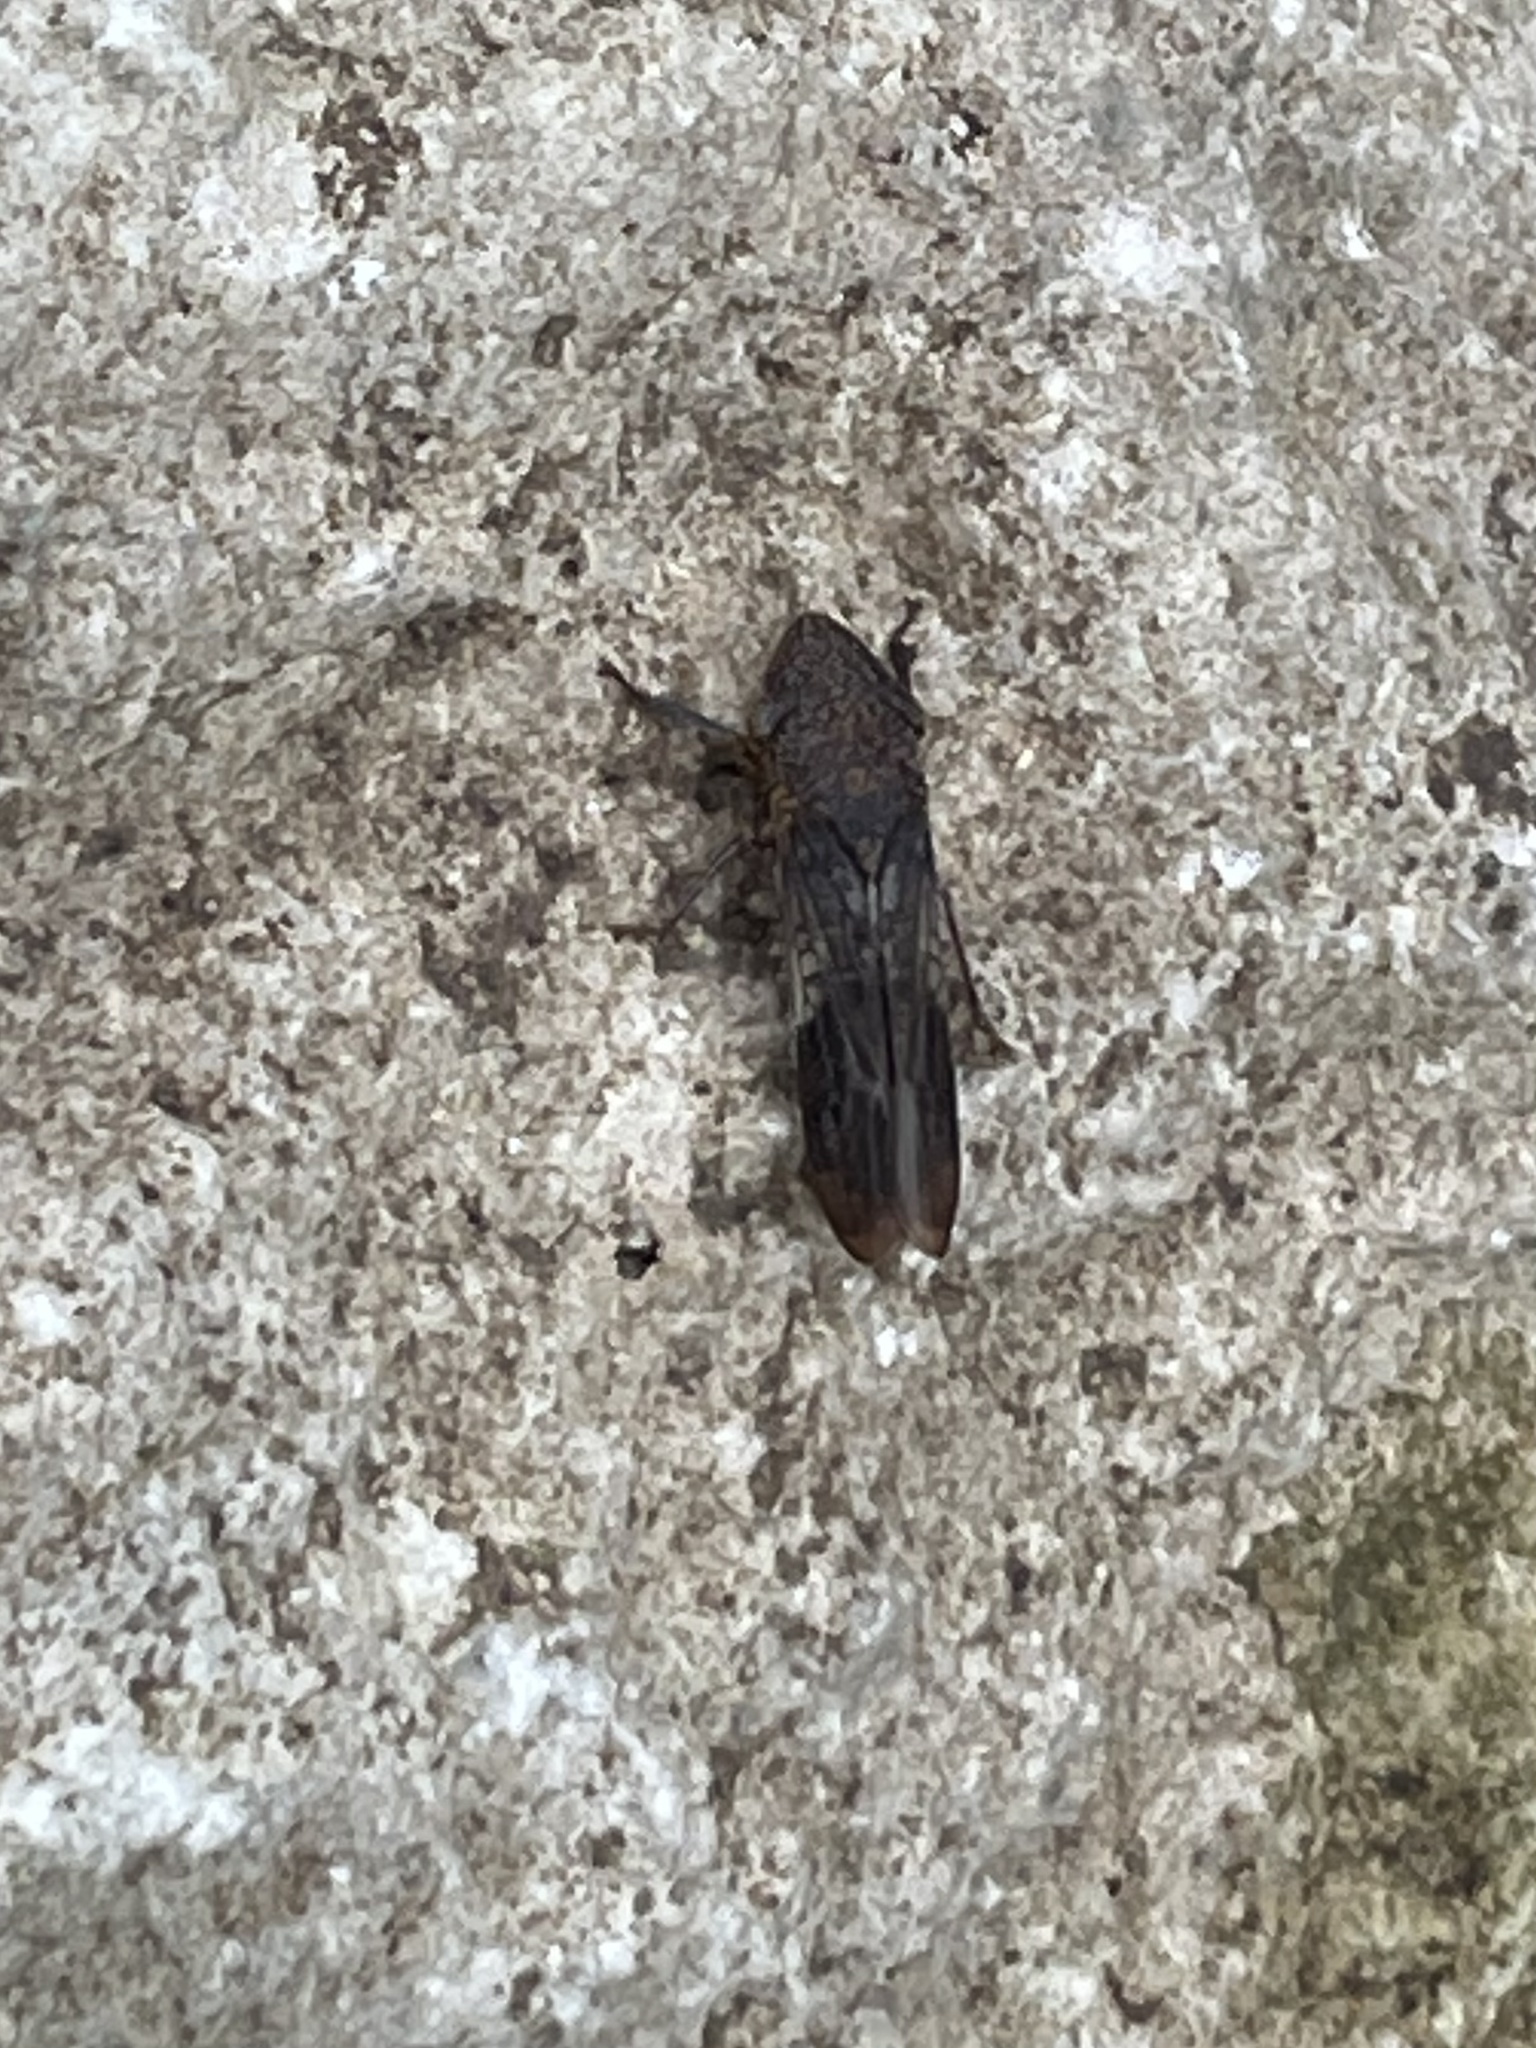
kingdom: Animalia
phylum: Arthropoda
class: Insecta
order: Hemiptera
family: Cicadellidae
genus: Homalodisca
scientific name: Homalodisca vitripennis
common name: Glassy-winged sharpshooter
